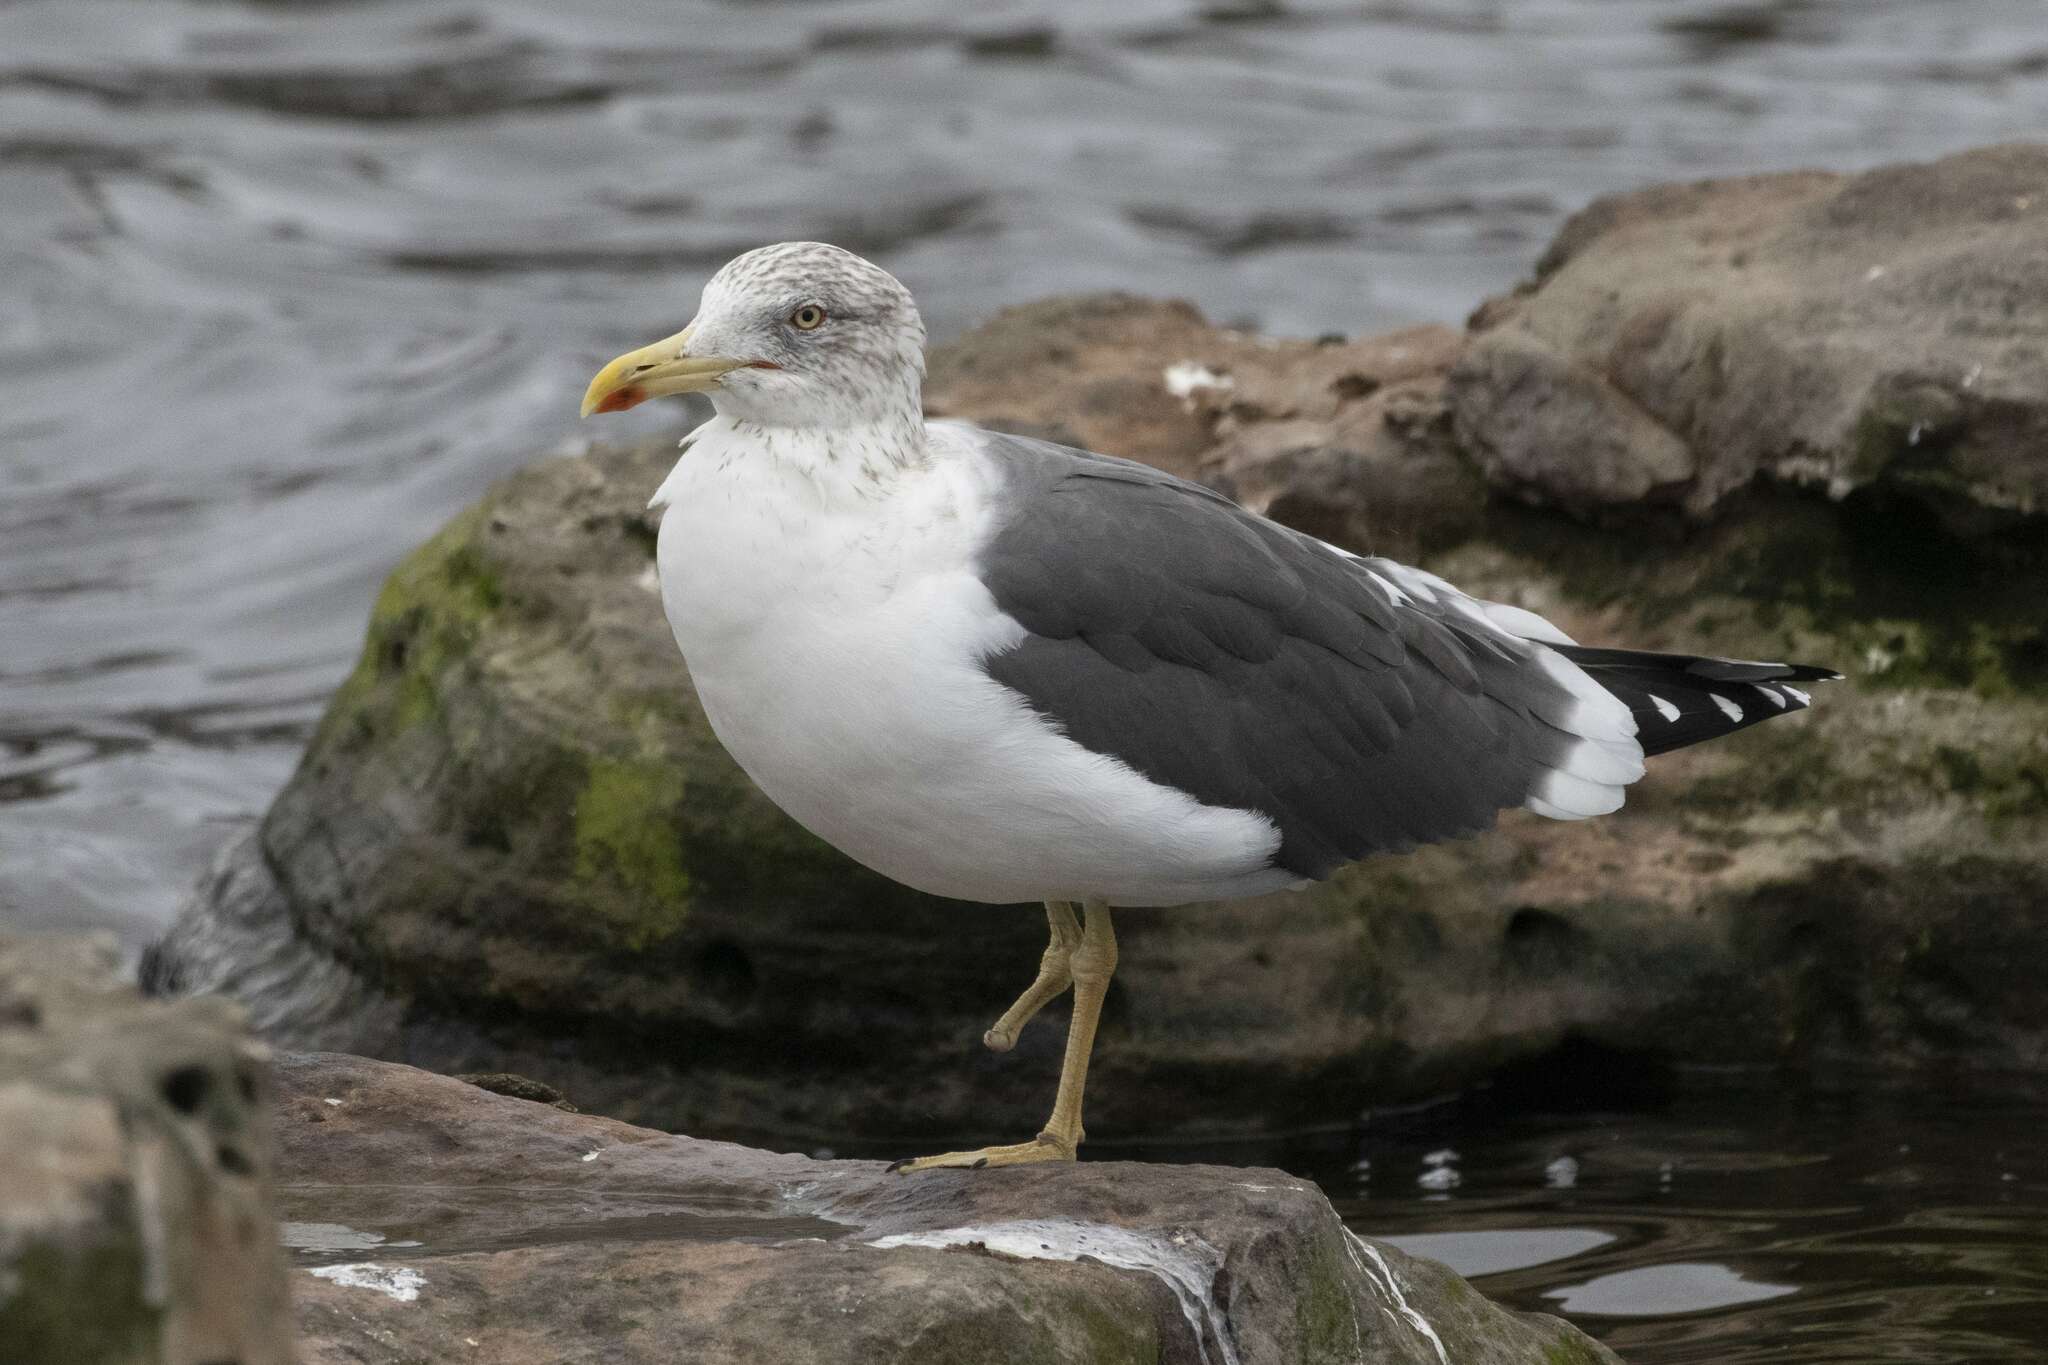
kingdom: Animalia
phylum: Chordata
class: Aves
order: Charadriiformes
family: Laridae
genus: Larus
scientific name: Larus fuscus
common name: Lesser black-backed gull
